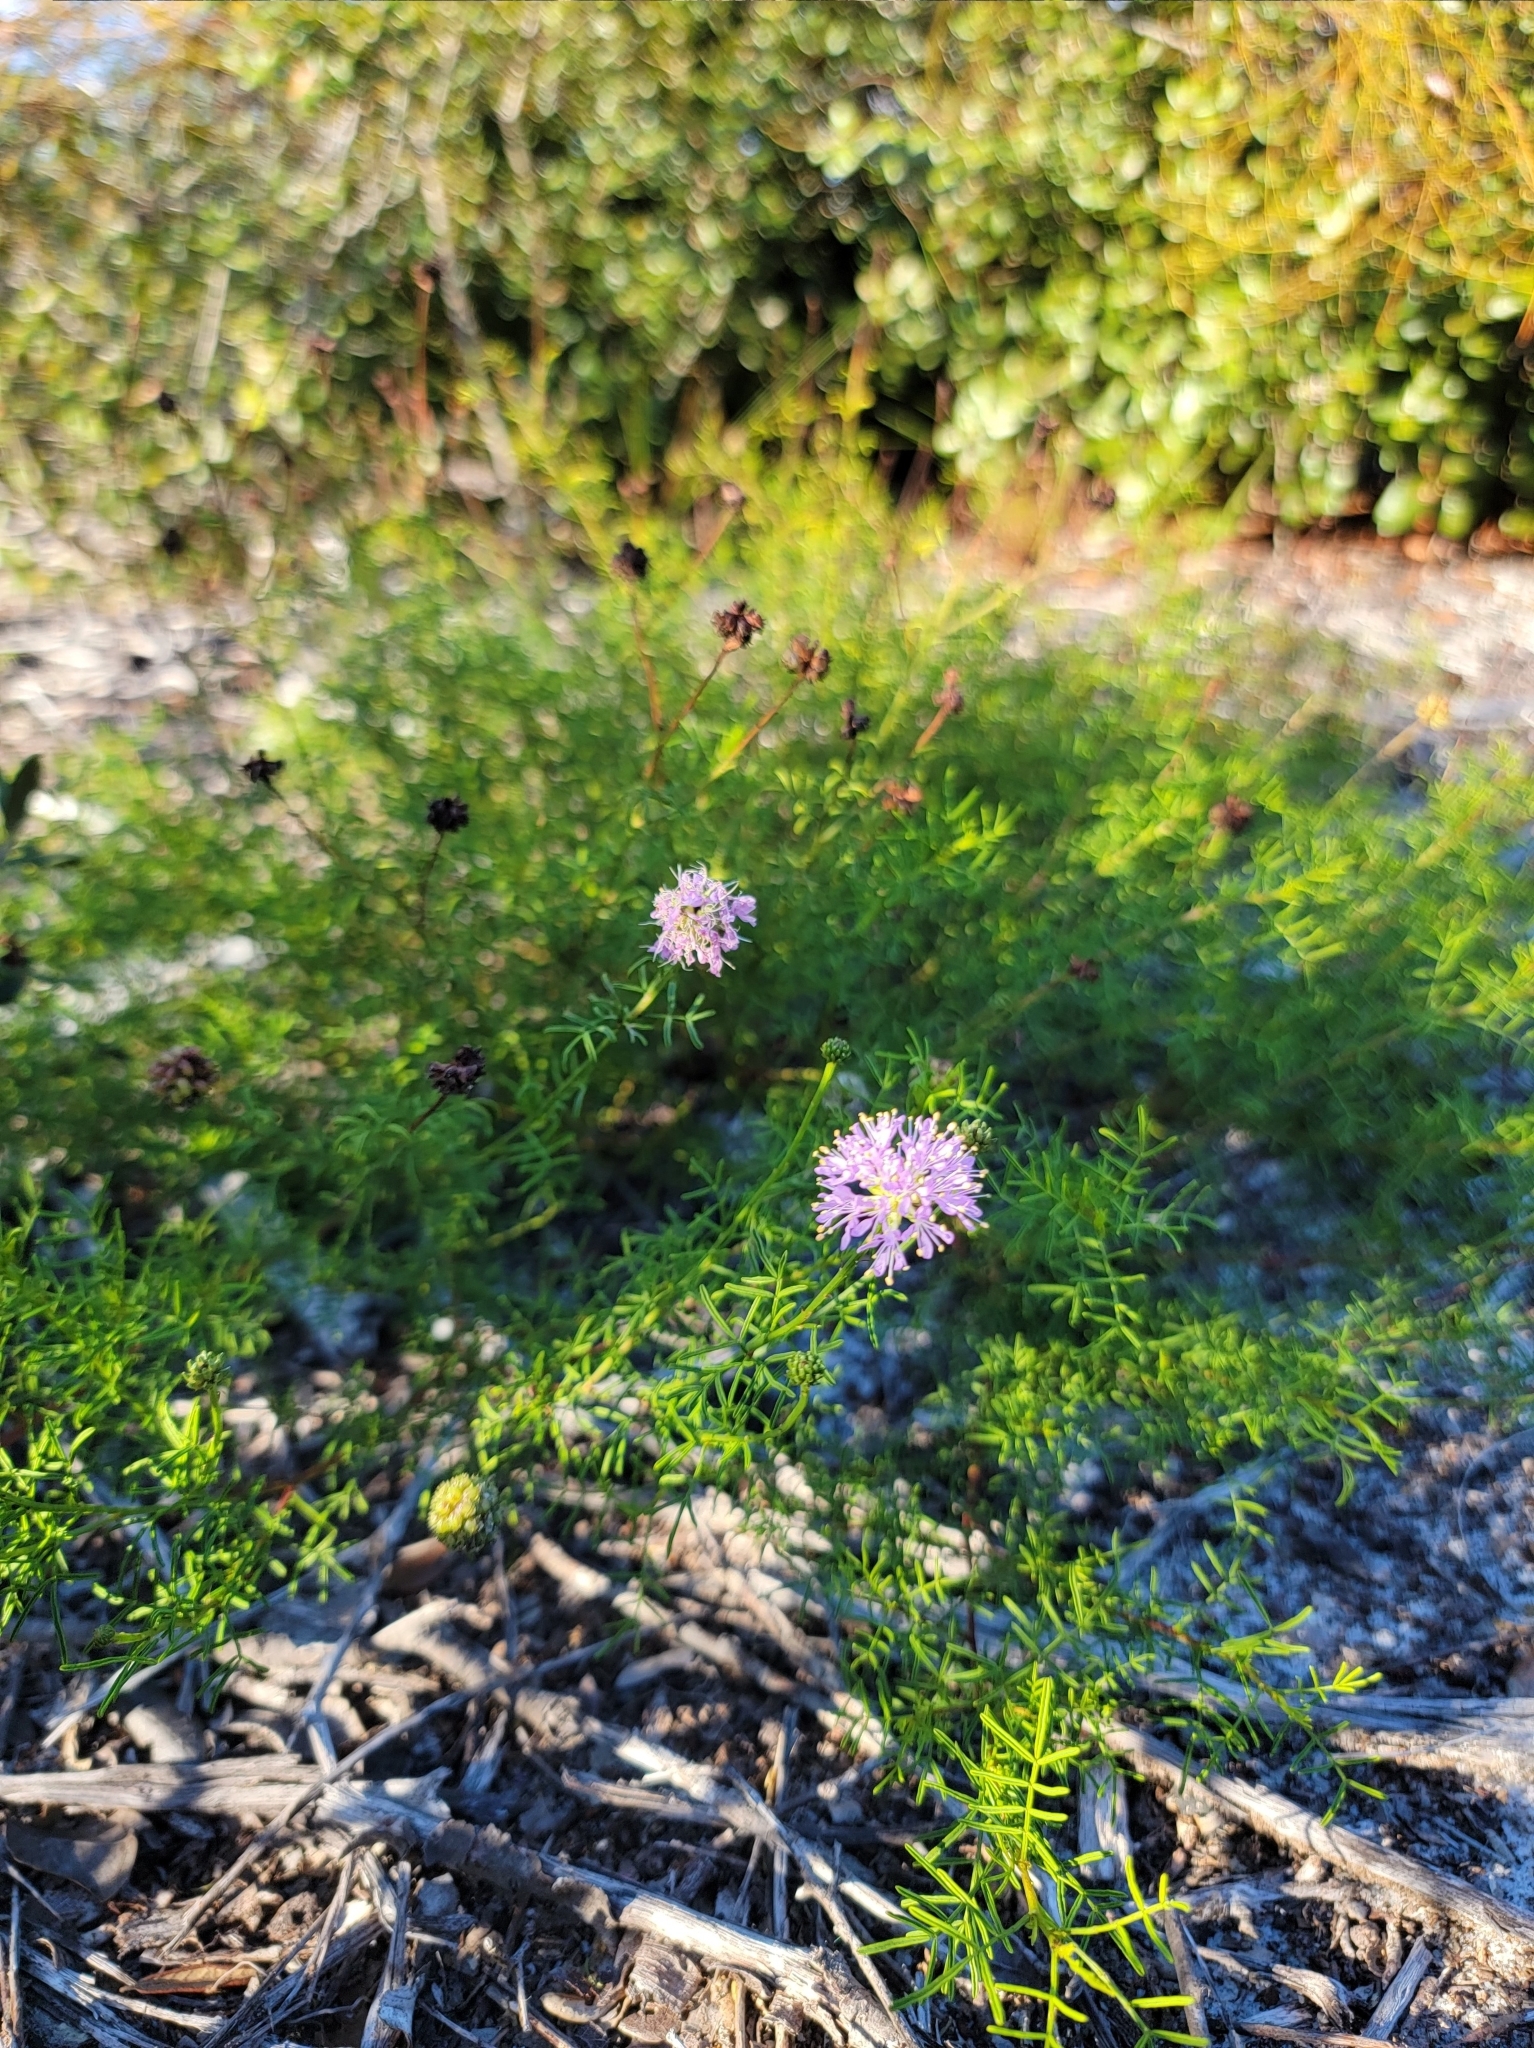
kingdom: Plantae
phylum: Tracheophyta
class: Magnoliopsida
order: Fabales
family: Fabaceae
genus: Dalea
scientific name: Dalea feayi
